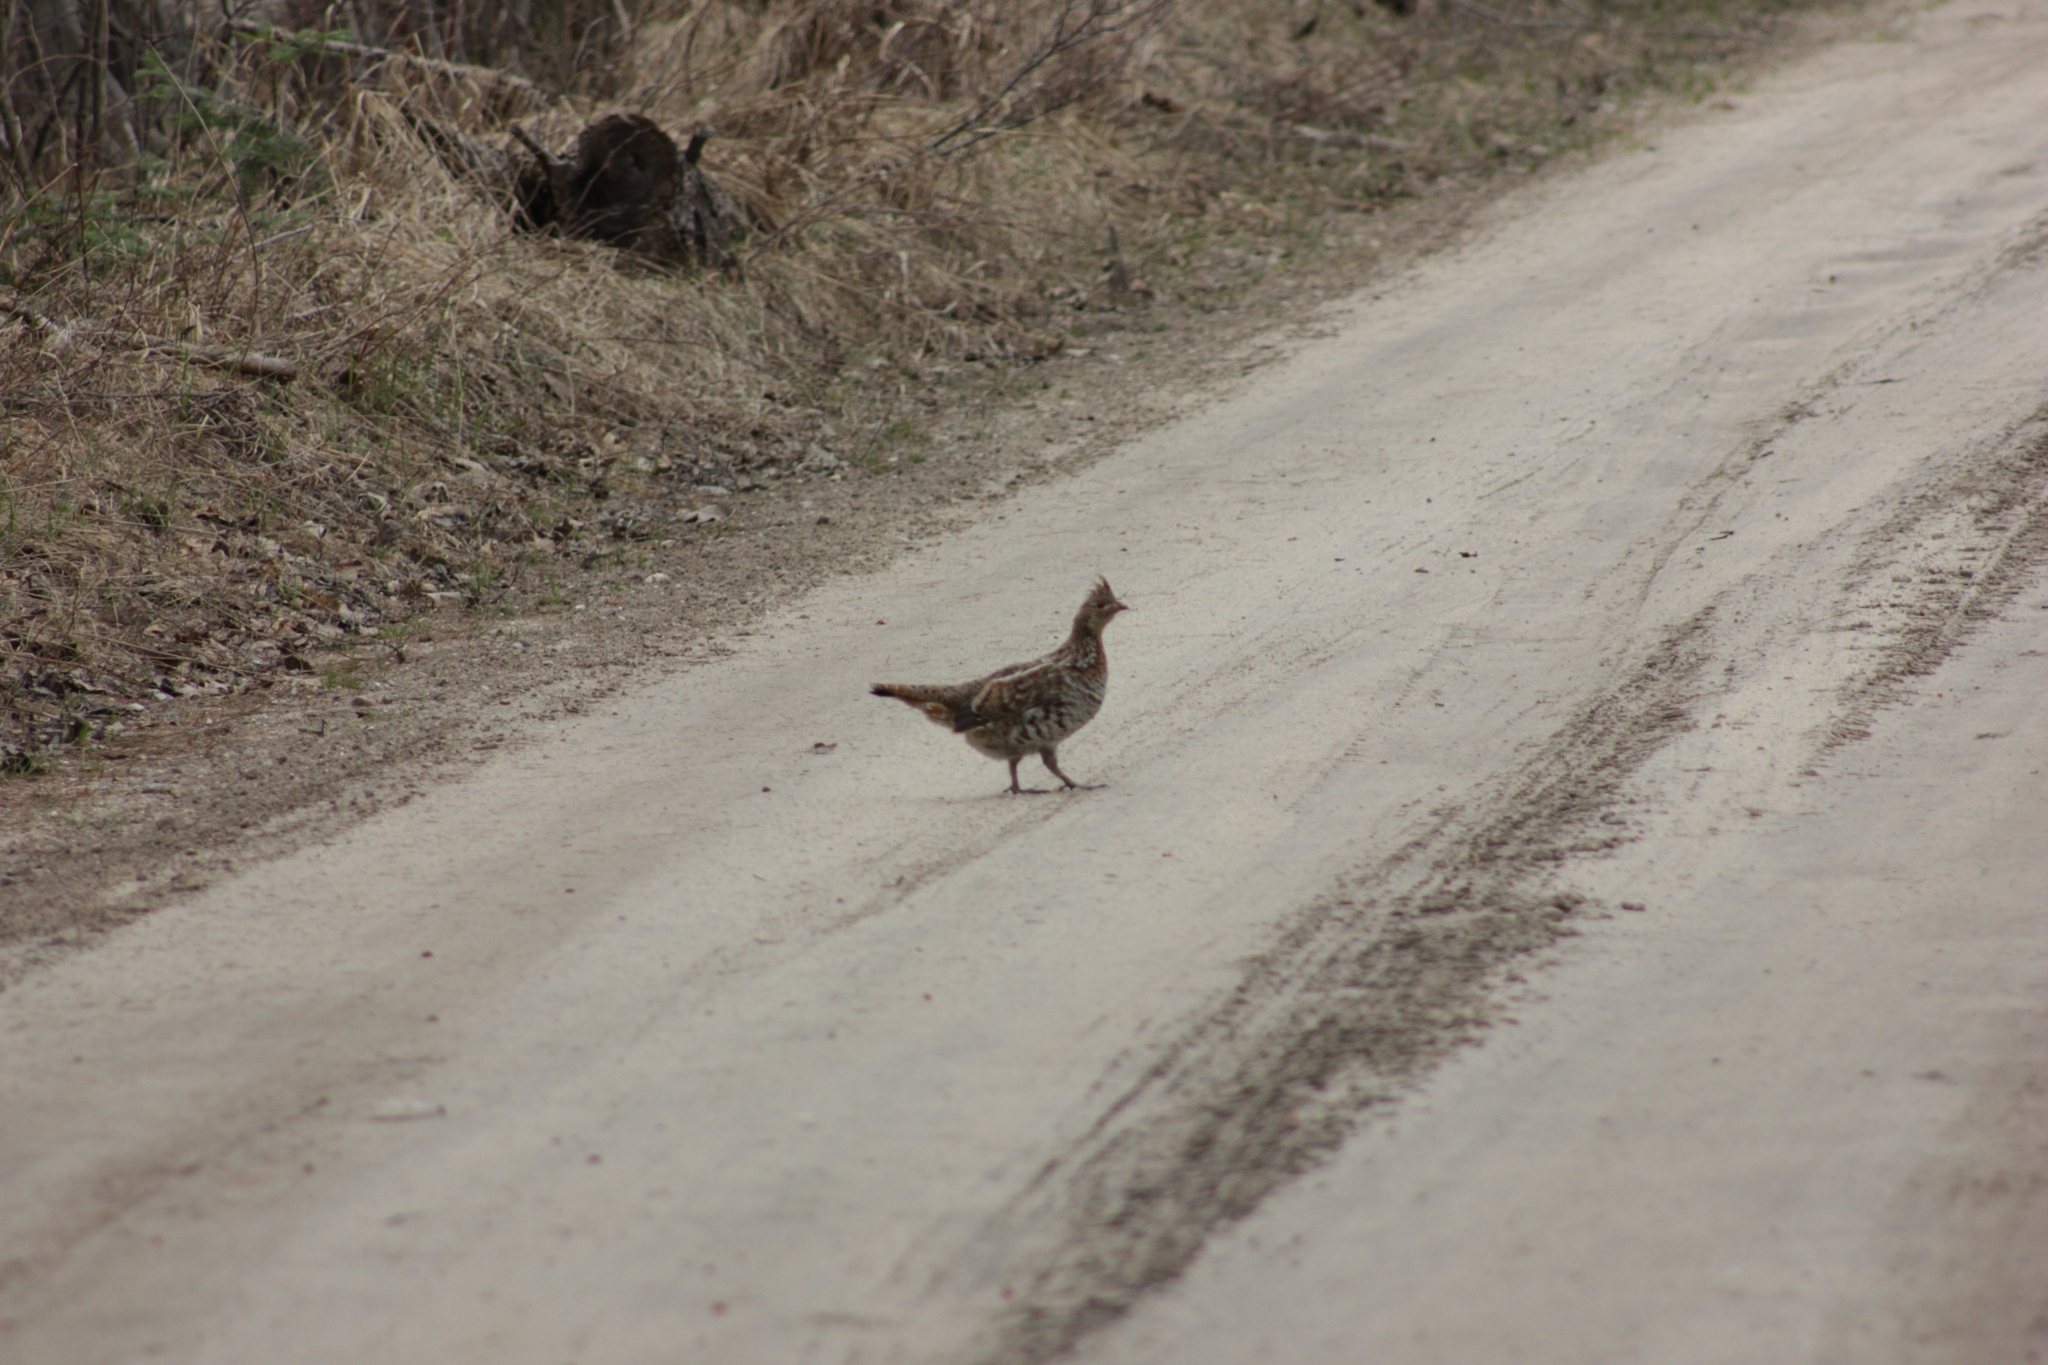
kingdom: Animalia
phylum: Chordata
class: Aves
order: Galliformes
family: Phasianidae
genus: Bonasa
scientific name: Bonasa umbellus
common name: Ruffed grouse
